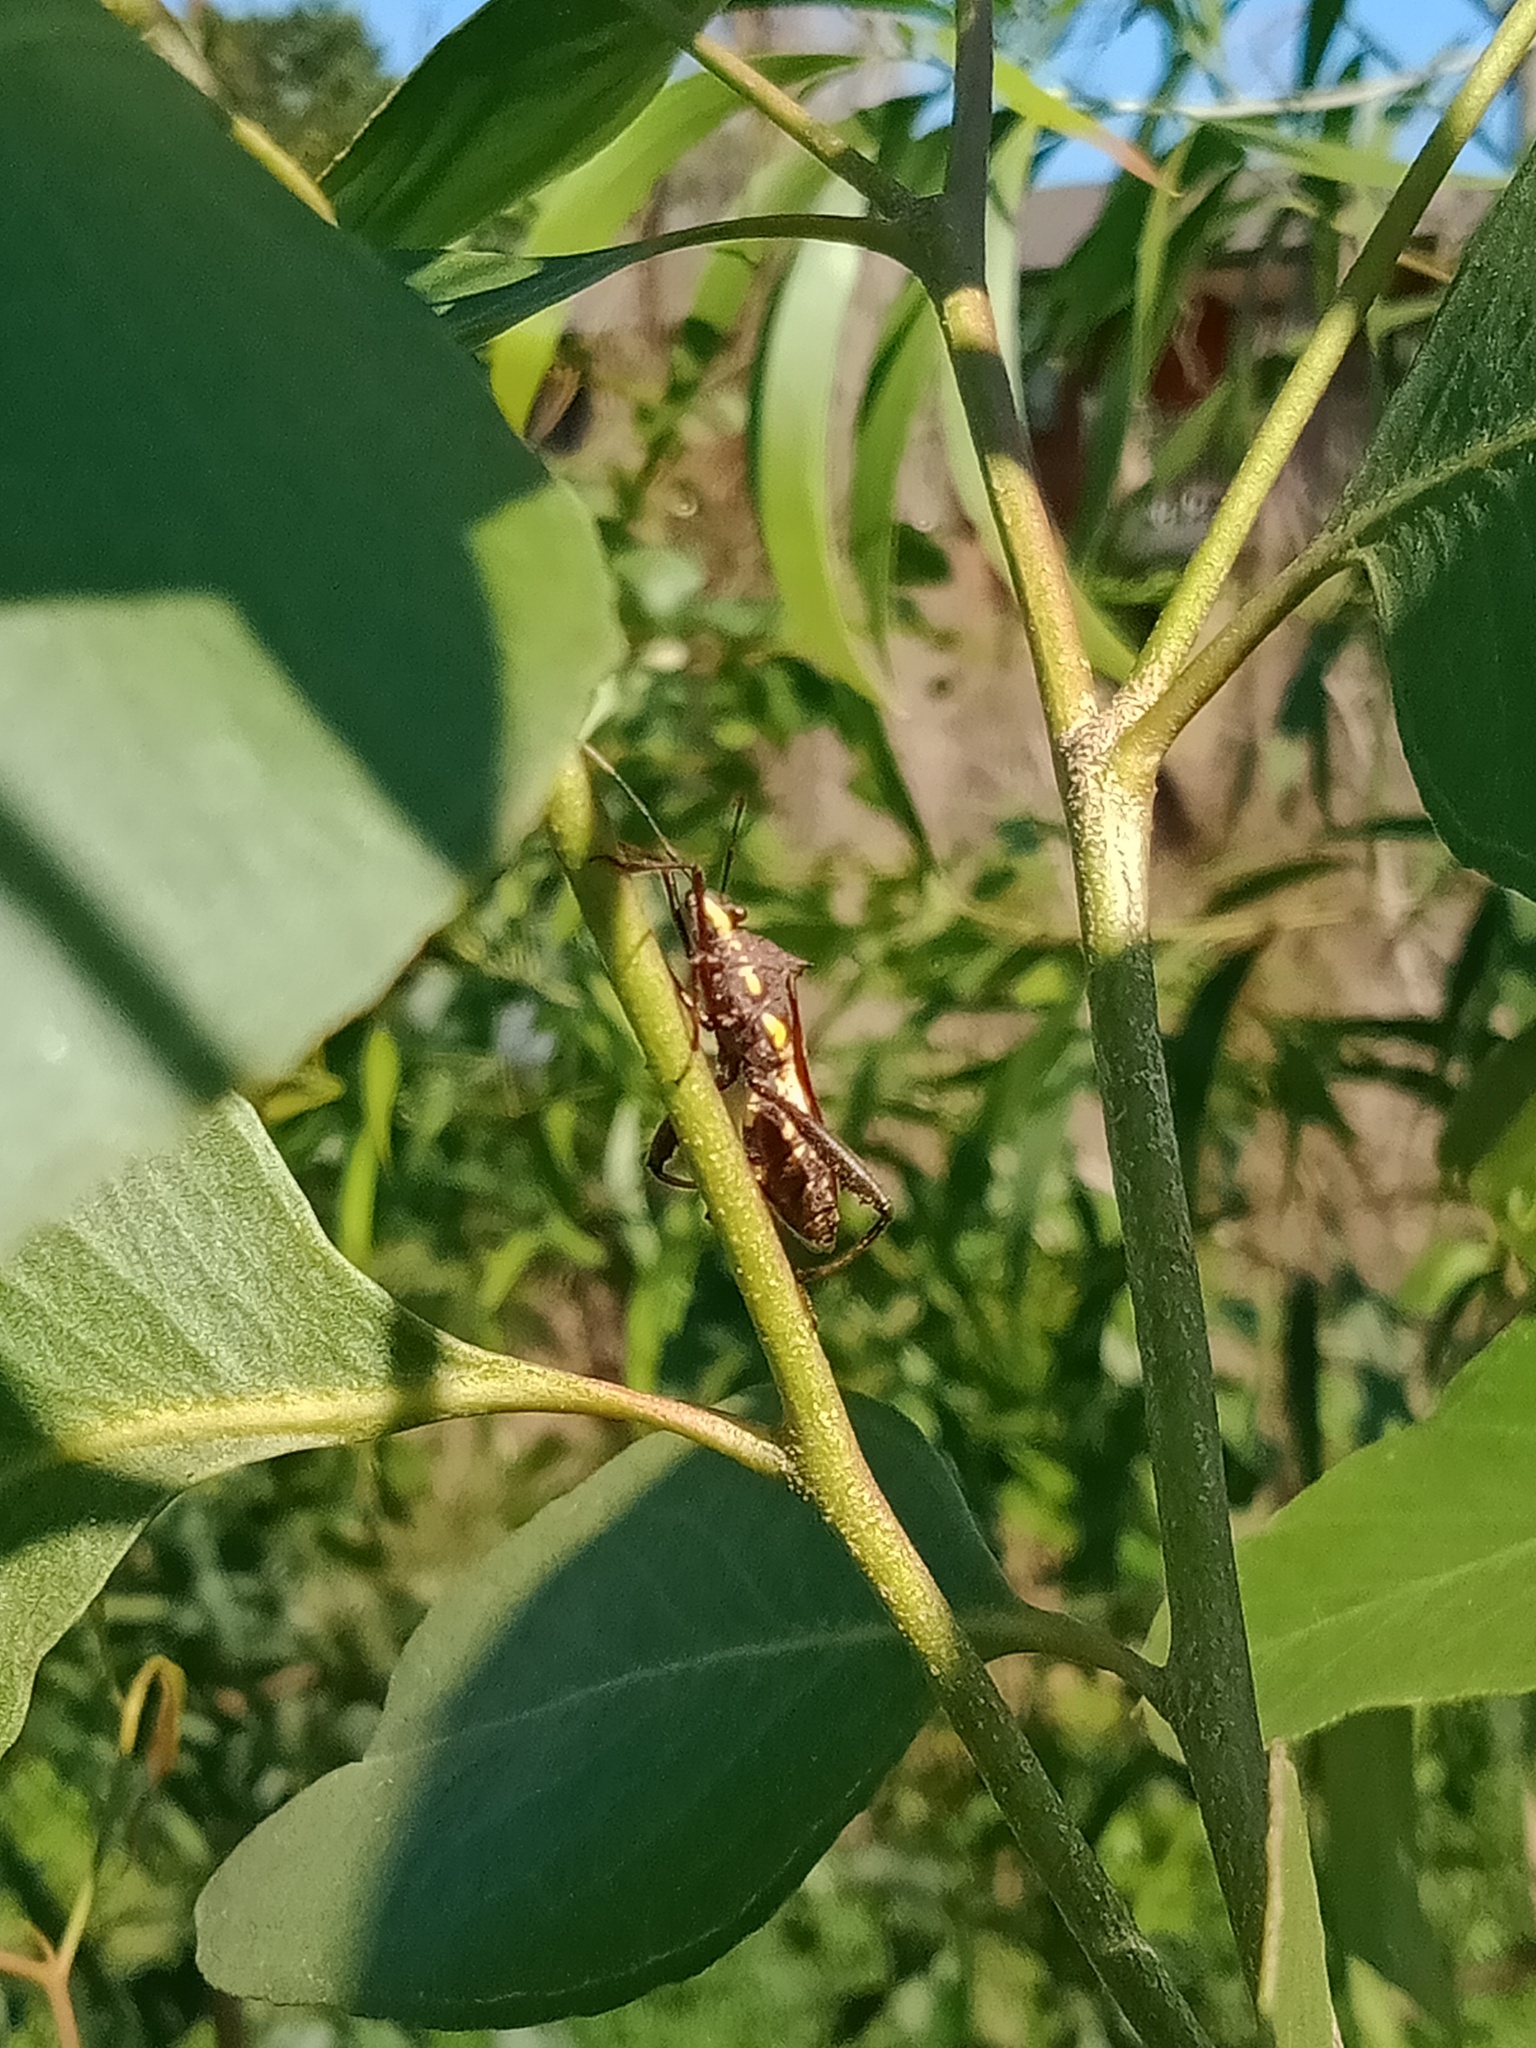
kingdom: Animalia
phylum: Arthropoda
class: Insecta
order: Hemiptera
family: Alydidae
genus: Riptortus
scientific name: Riptortus serripes
